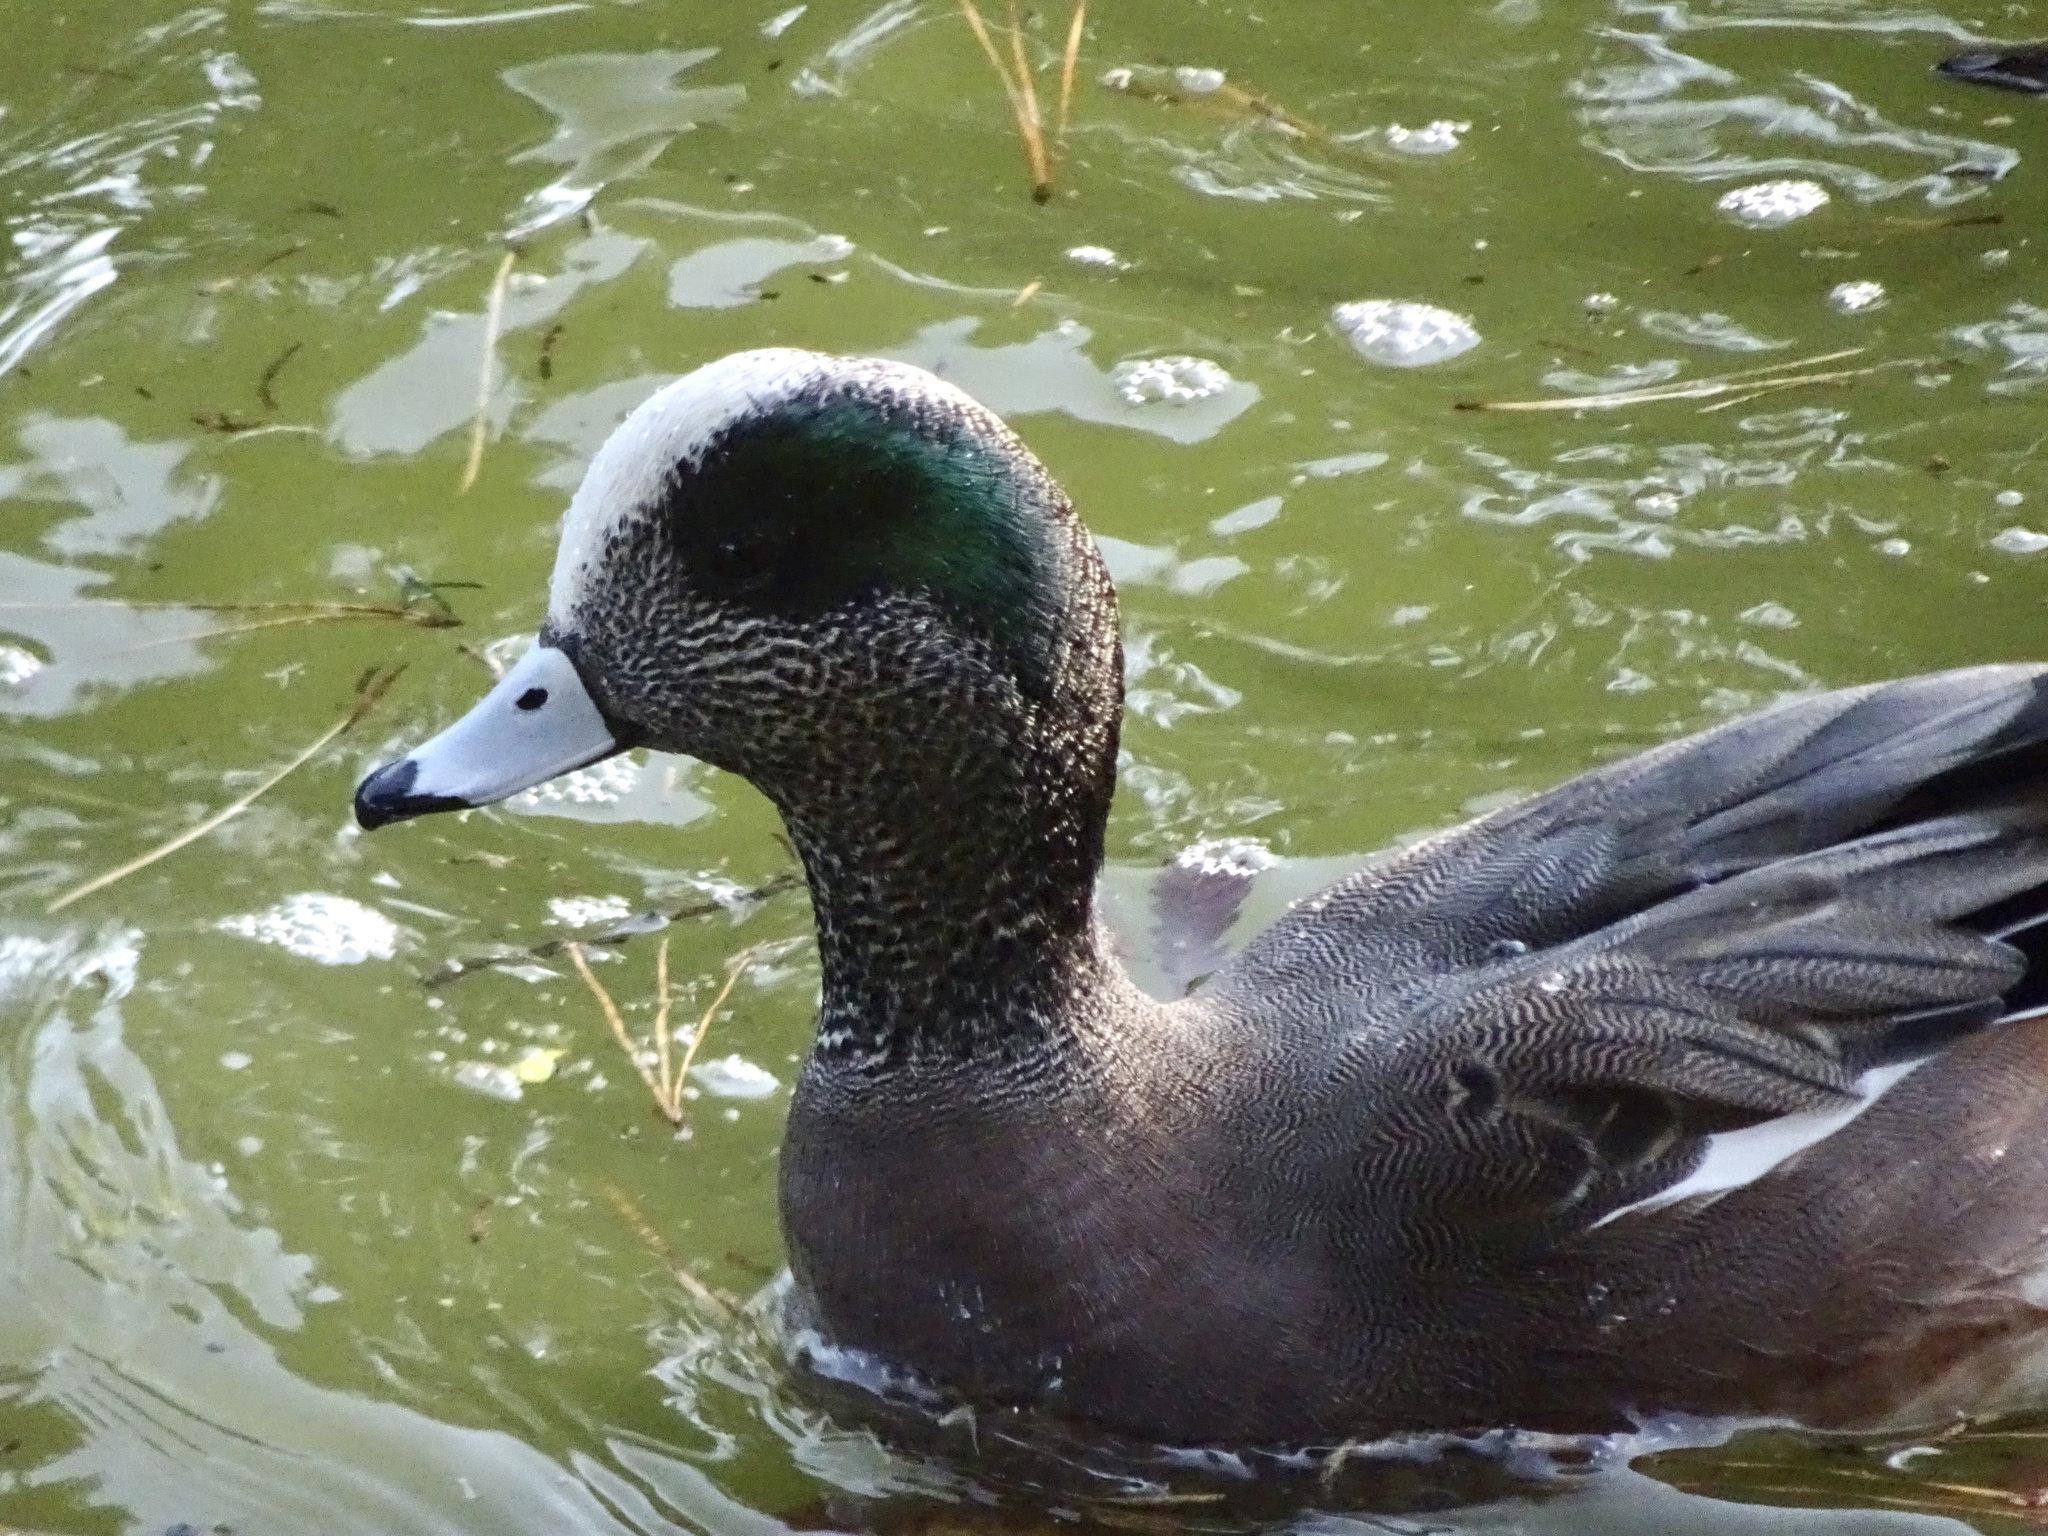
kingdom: Animalia
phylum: Chordata
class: Aves
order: Anseriformes
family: Anatidae
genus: Mareca
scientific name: Mareca americana
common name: American wigeon
